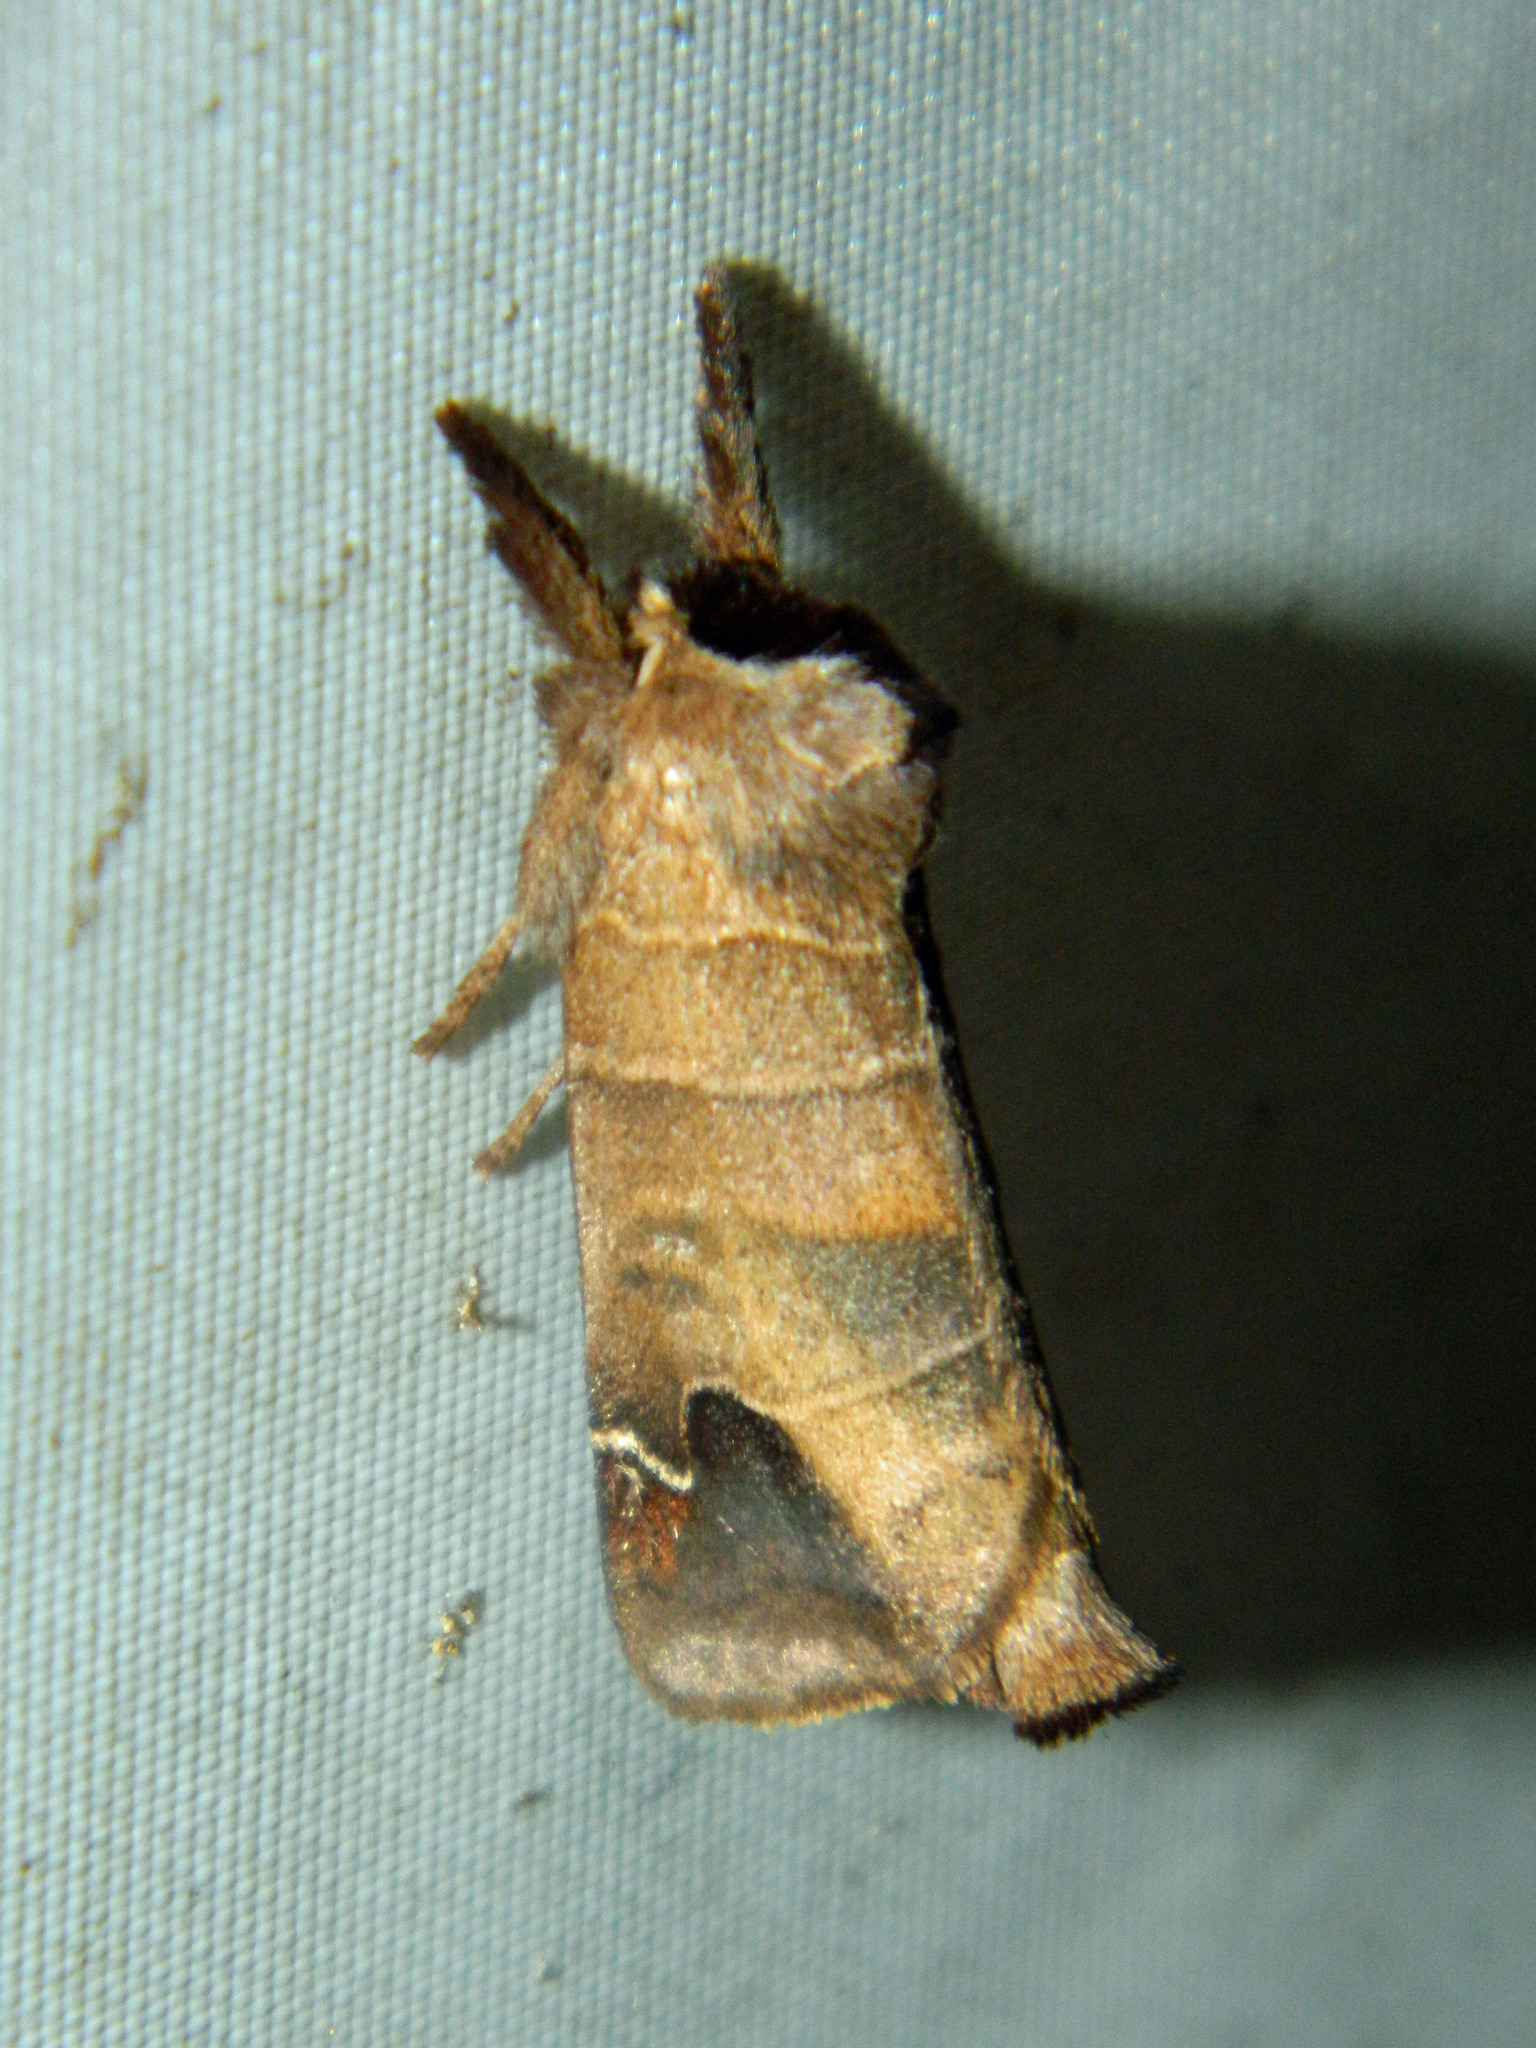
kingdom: Animalia
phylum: Arthropoda
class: Insecta
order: Lepidoptera
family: Notodontidae
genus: Clostera
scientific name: Clostera albosigma
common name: Sigmoid prominent
